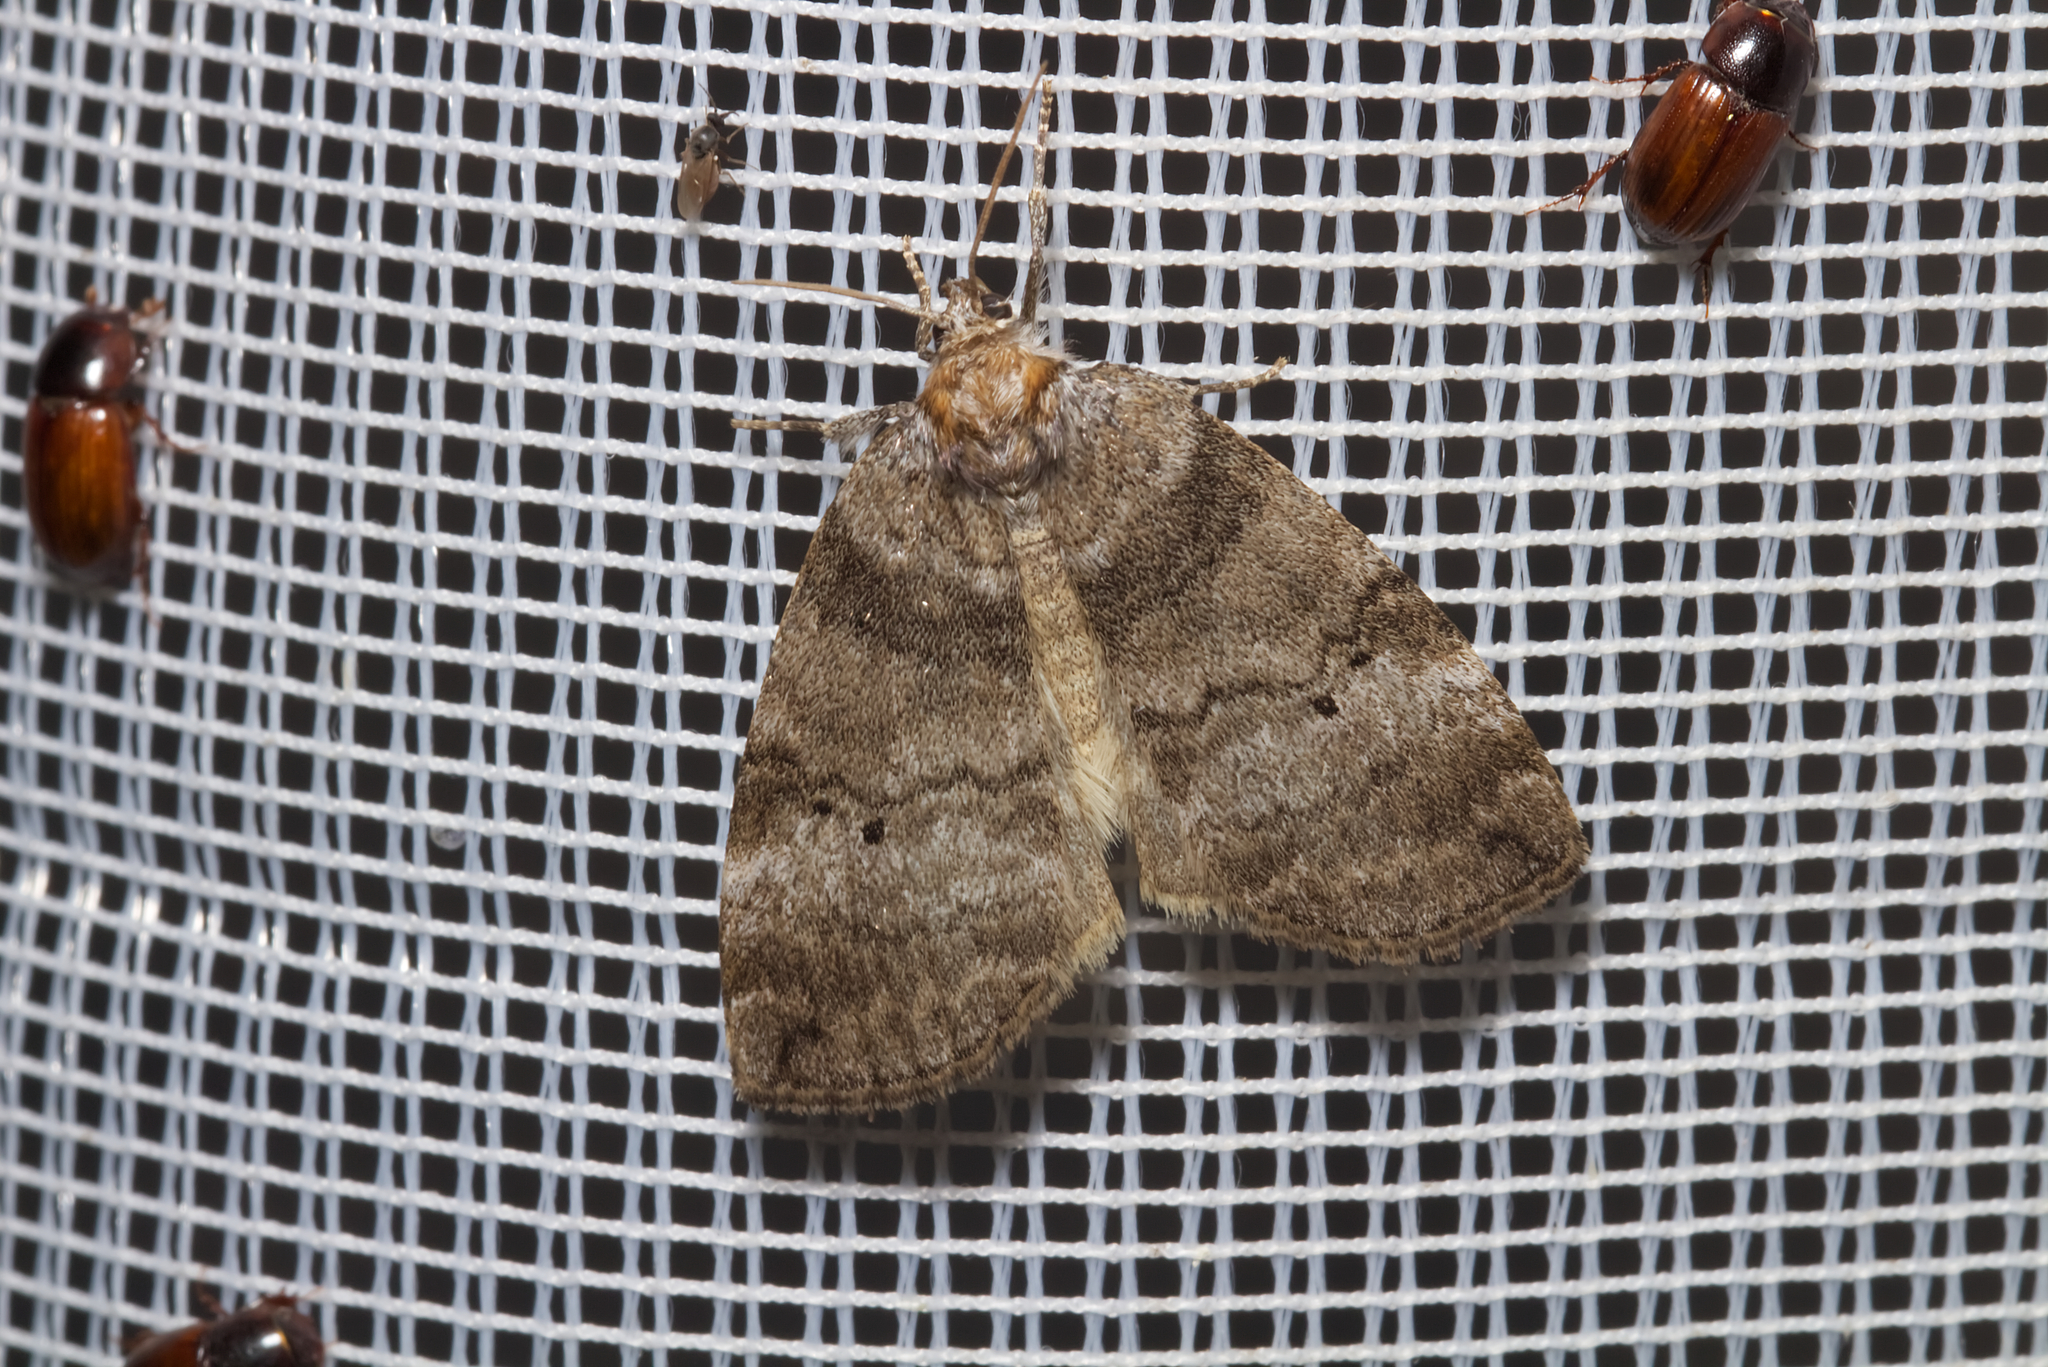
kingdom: Animalia
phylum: Arthropoda
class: Insecta
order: Lepidoptera
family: Drepanidae
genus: Ochropacha
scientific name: Ochropacha duplaris
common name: Common lutestring
